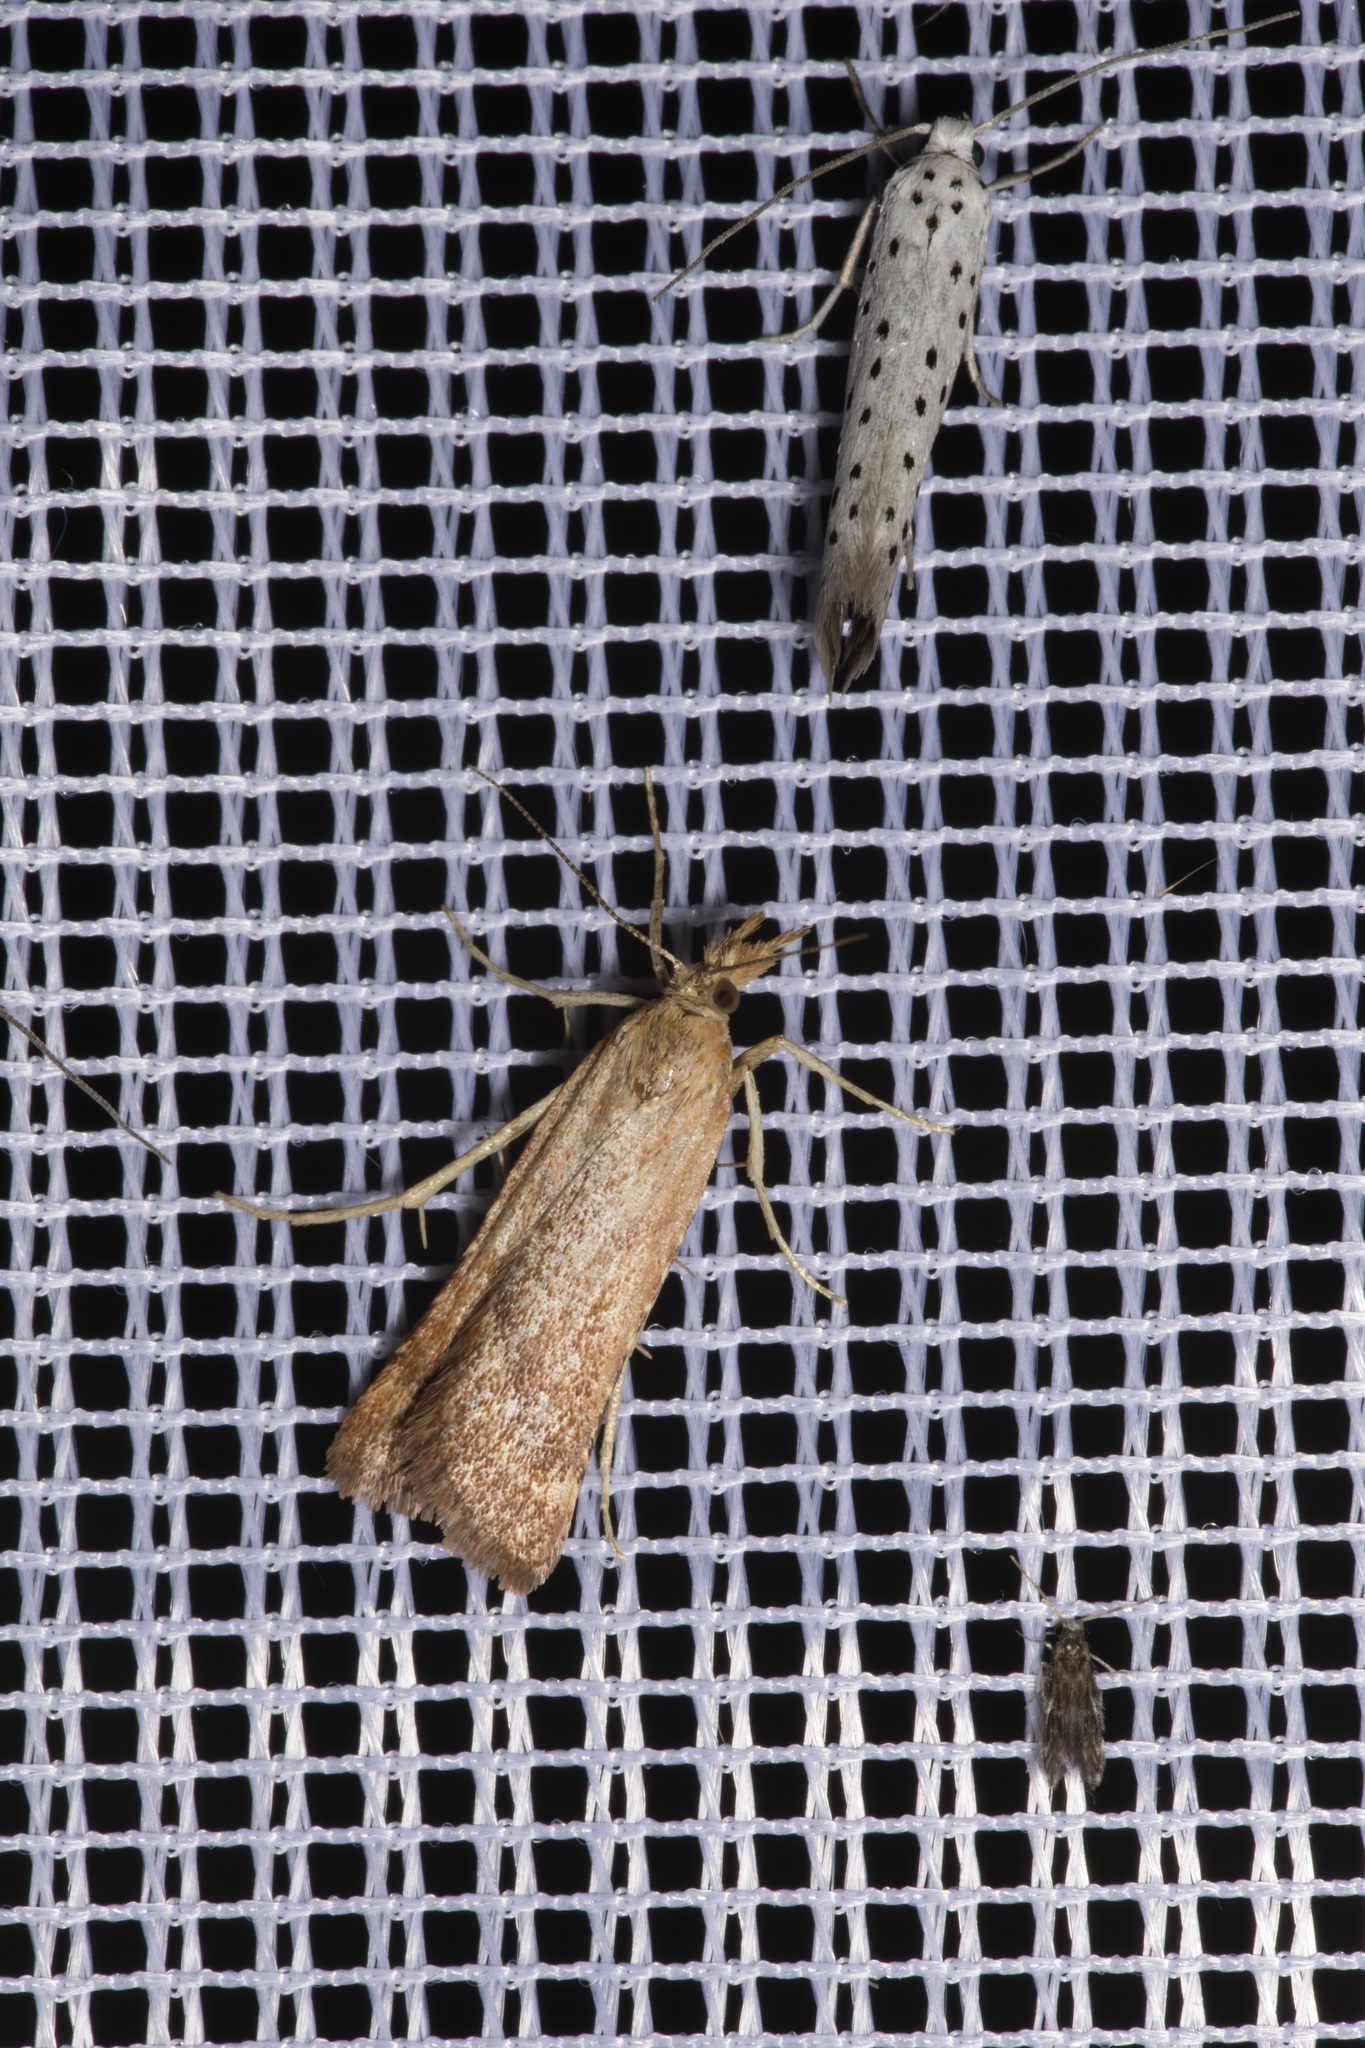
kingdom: Animalia
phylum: Arthropoda
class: Insecta
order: Lepidoptera
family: Pyralidae
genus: Synaphe
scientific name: Synaphe punctalis
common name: Long-legged tabby
